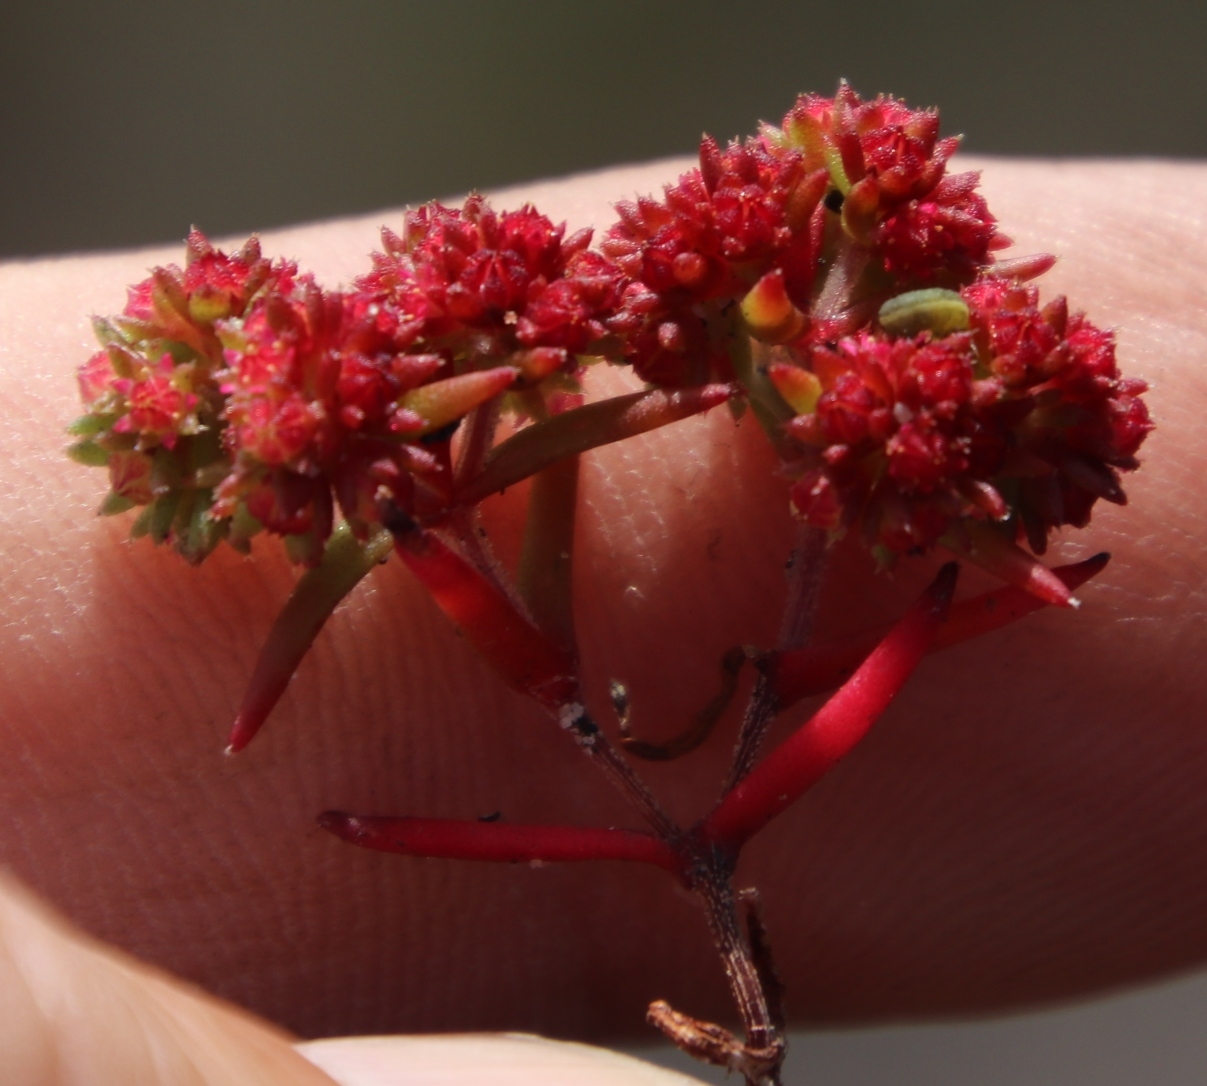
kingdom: Plantae
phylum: Tracheophyta
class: Magnoliopsida
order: Saxifragales
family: Crassulaceae
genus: Crassula
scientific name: Crassula glomerata
